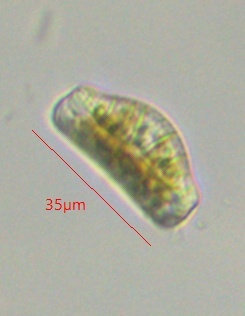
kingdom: Chromista
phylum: Ochrophyta
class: Bacillariophyceae
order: Rhopalodiales
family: Rhopalodiaceae
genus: Epithemia
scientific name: Epithemia sorex
